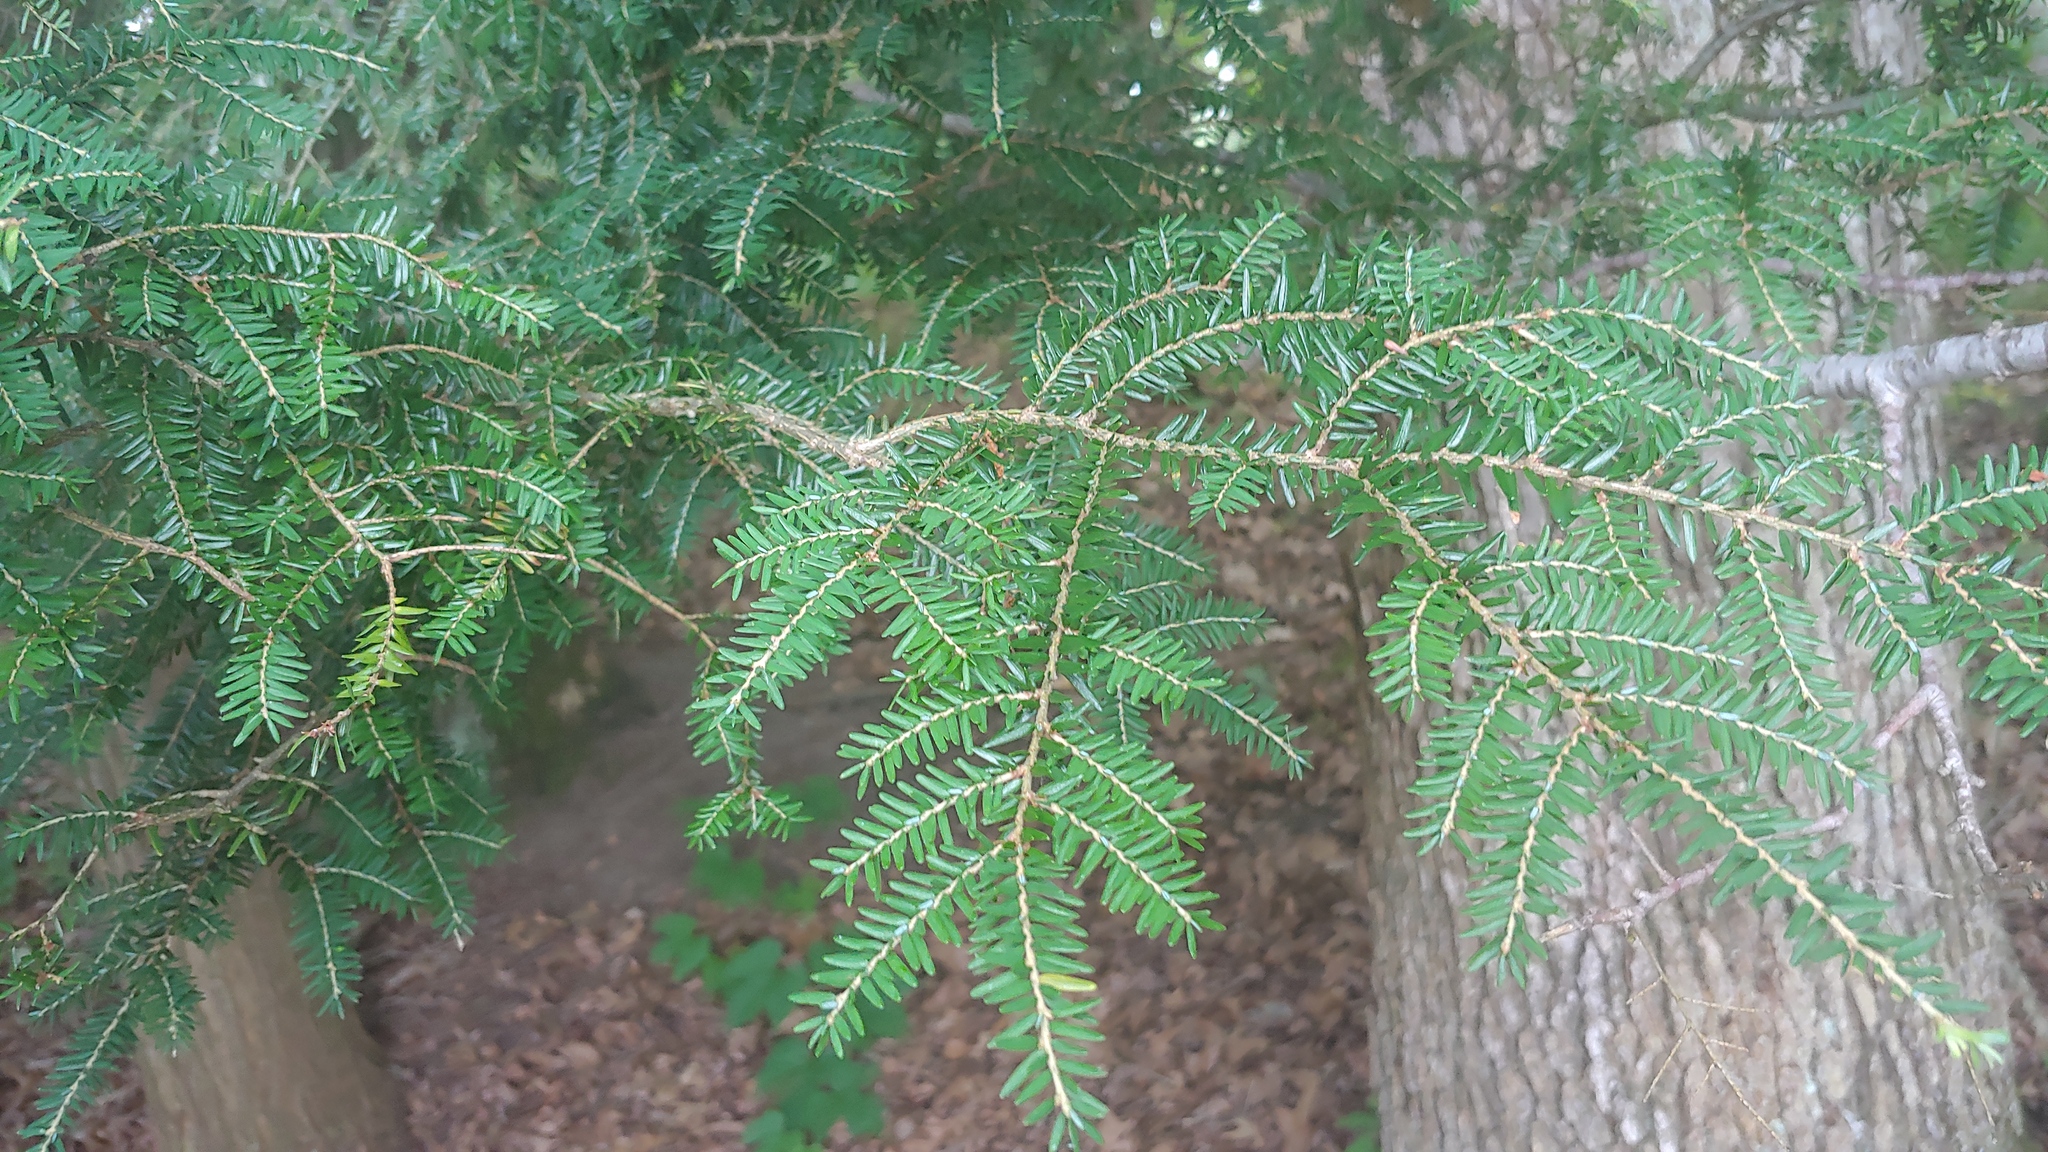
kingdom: Plantae
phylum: Tracheophyta
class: Pinopsida
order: Pinales
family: Pinaceae
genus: Tsuga
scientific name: Tsuga canadensis
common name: Eastern hemlock
